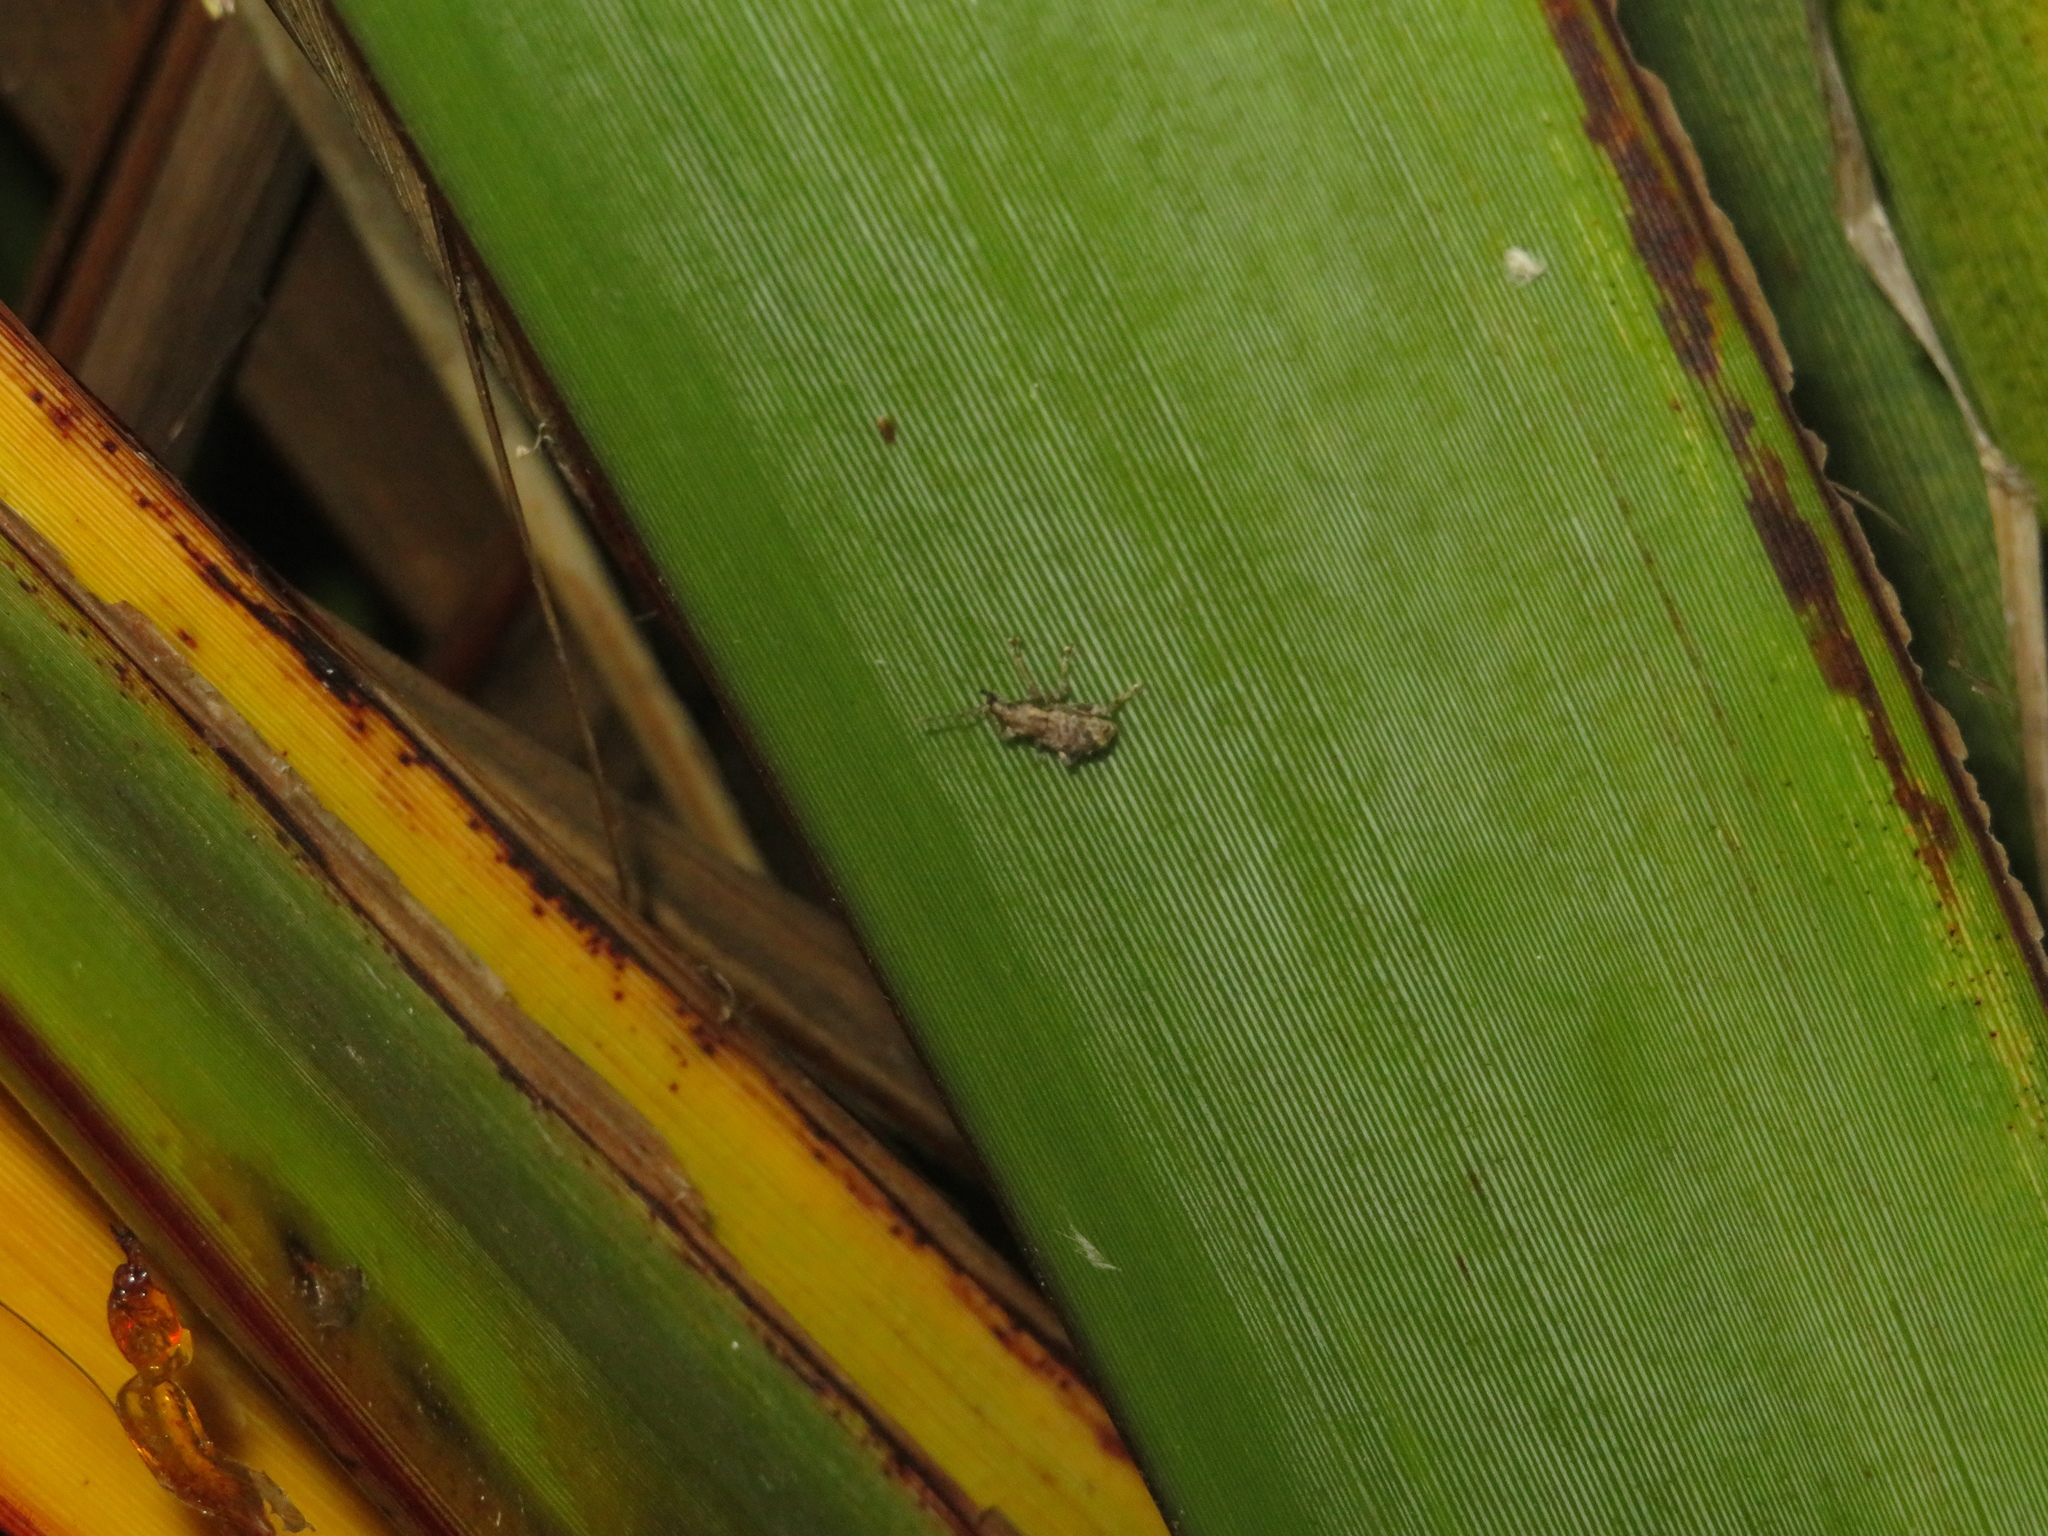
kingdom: Animalia
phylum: Arthropoda
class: Insecta
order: Coleoptera
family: Curculionidae
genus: Chalepistes
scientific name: Chalepistes compressus
